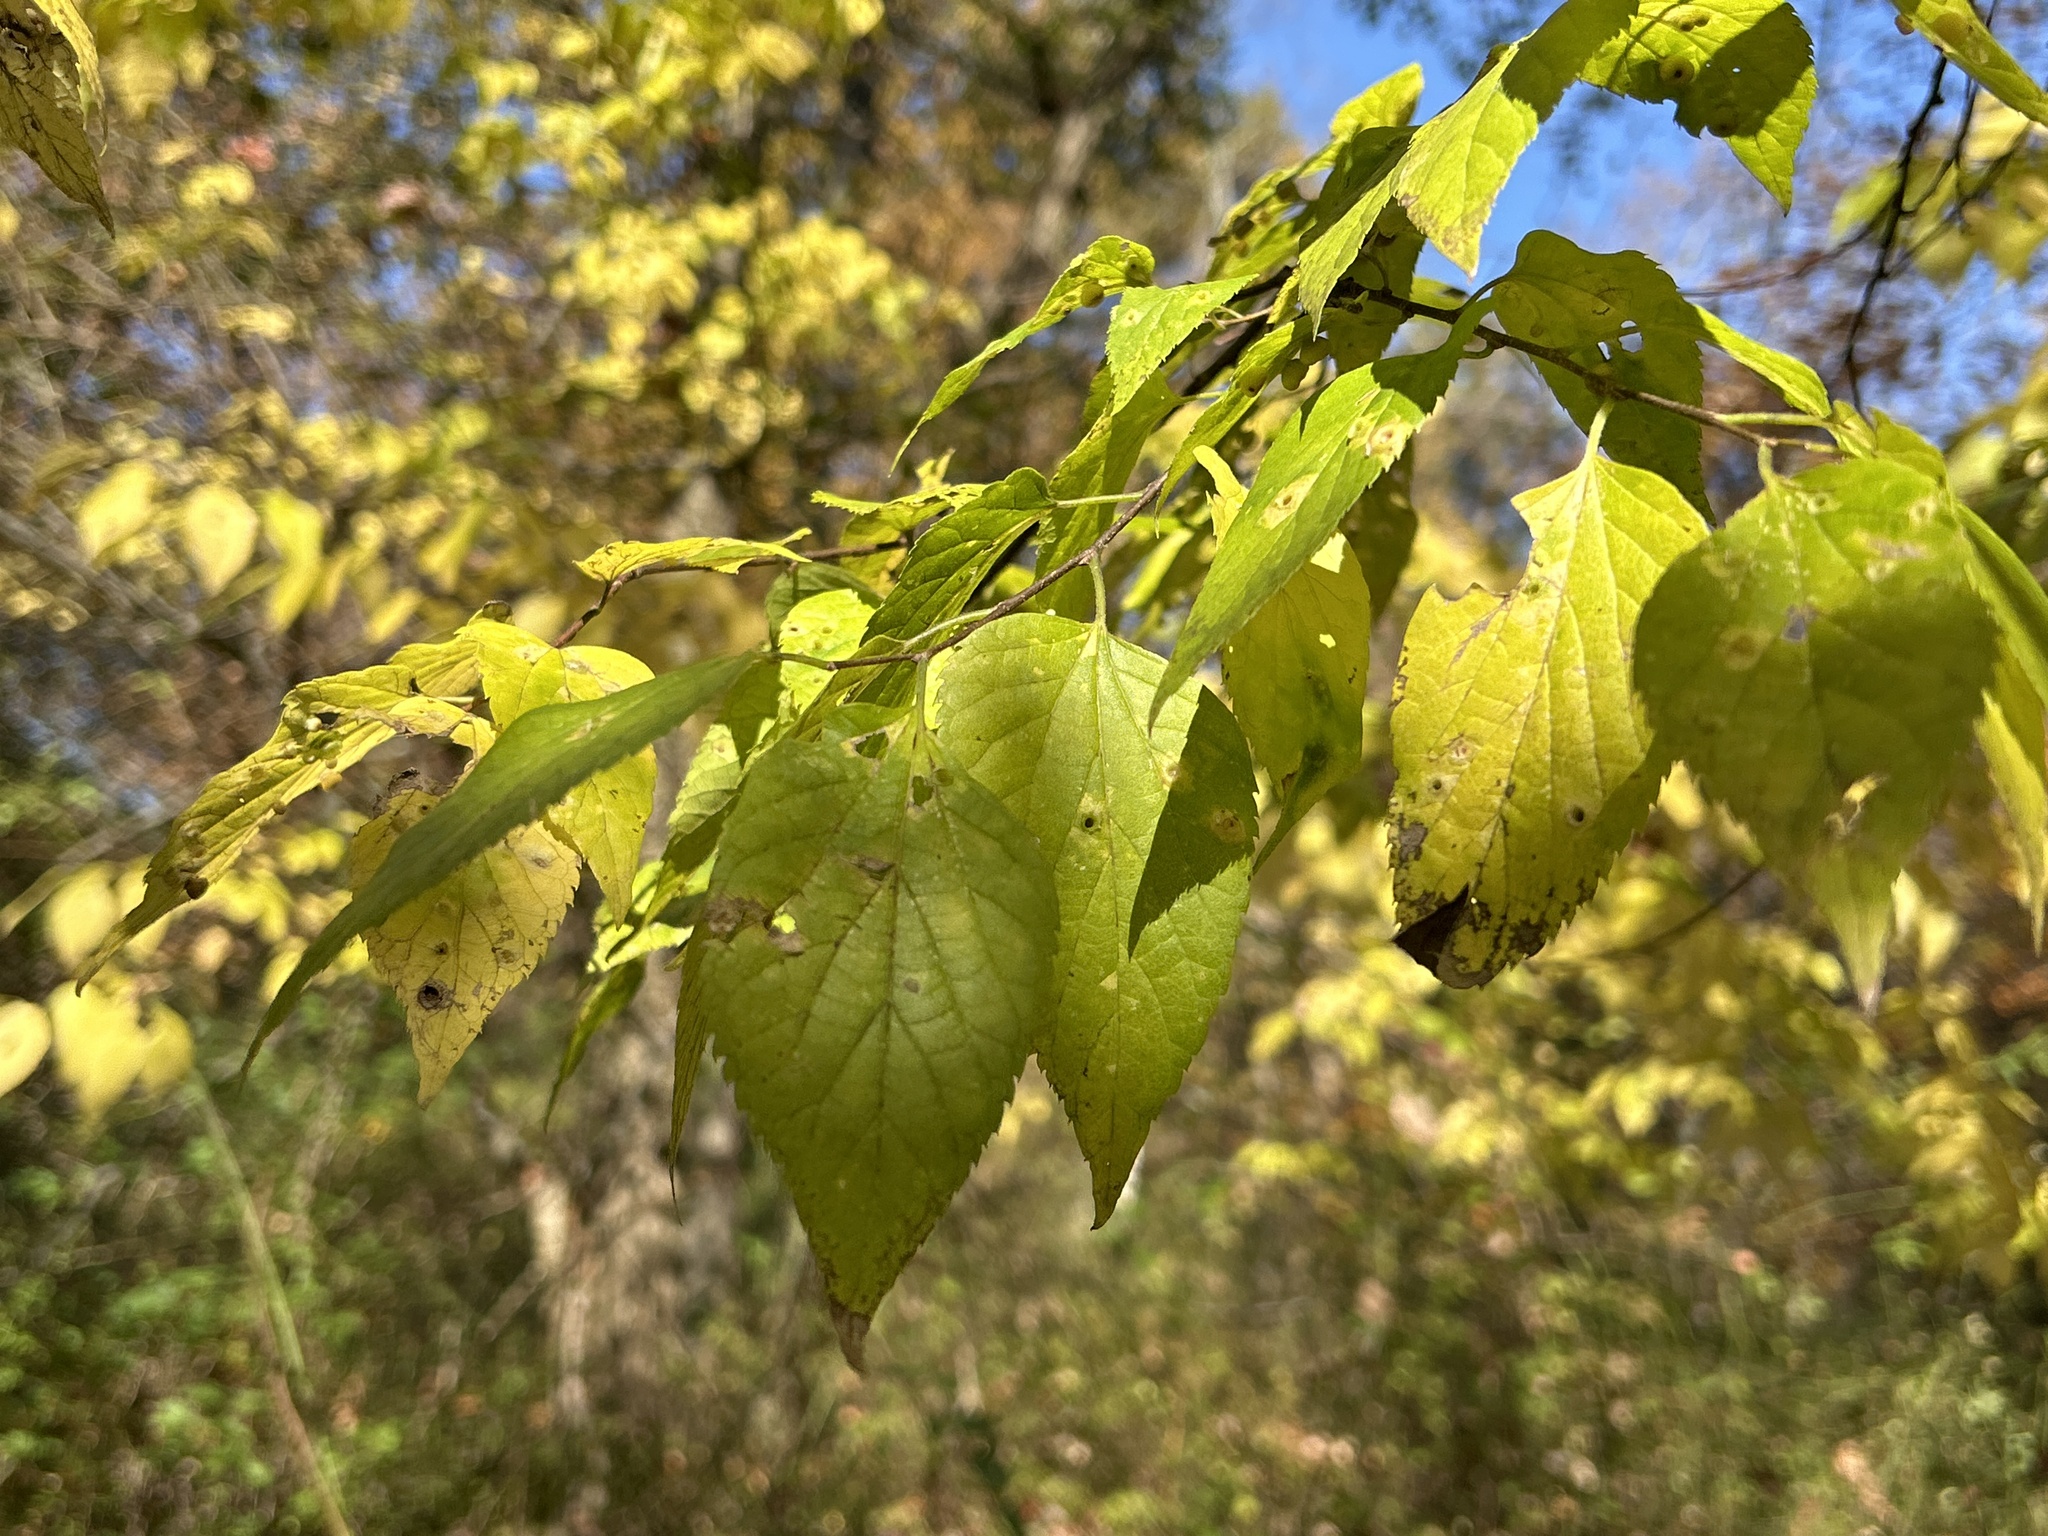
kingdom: Plantae
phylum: Tracheophyta
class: Magnoliopsida
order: Rosales
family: Cannabaceae
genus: Celtis
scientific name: Celtis occidentalis
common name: Common hackberry
